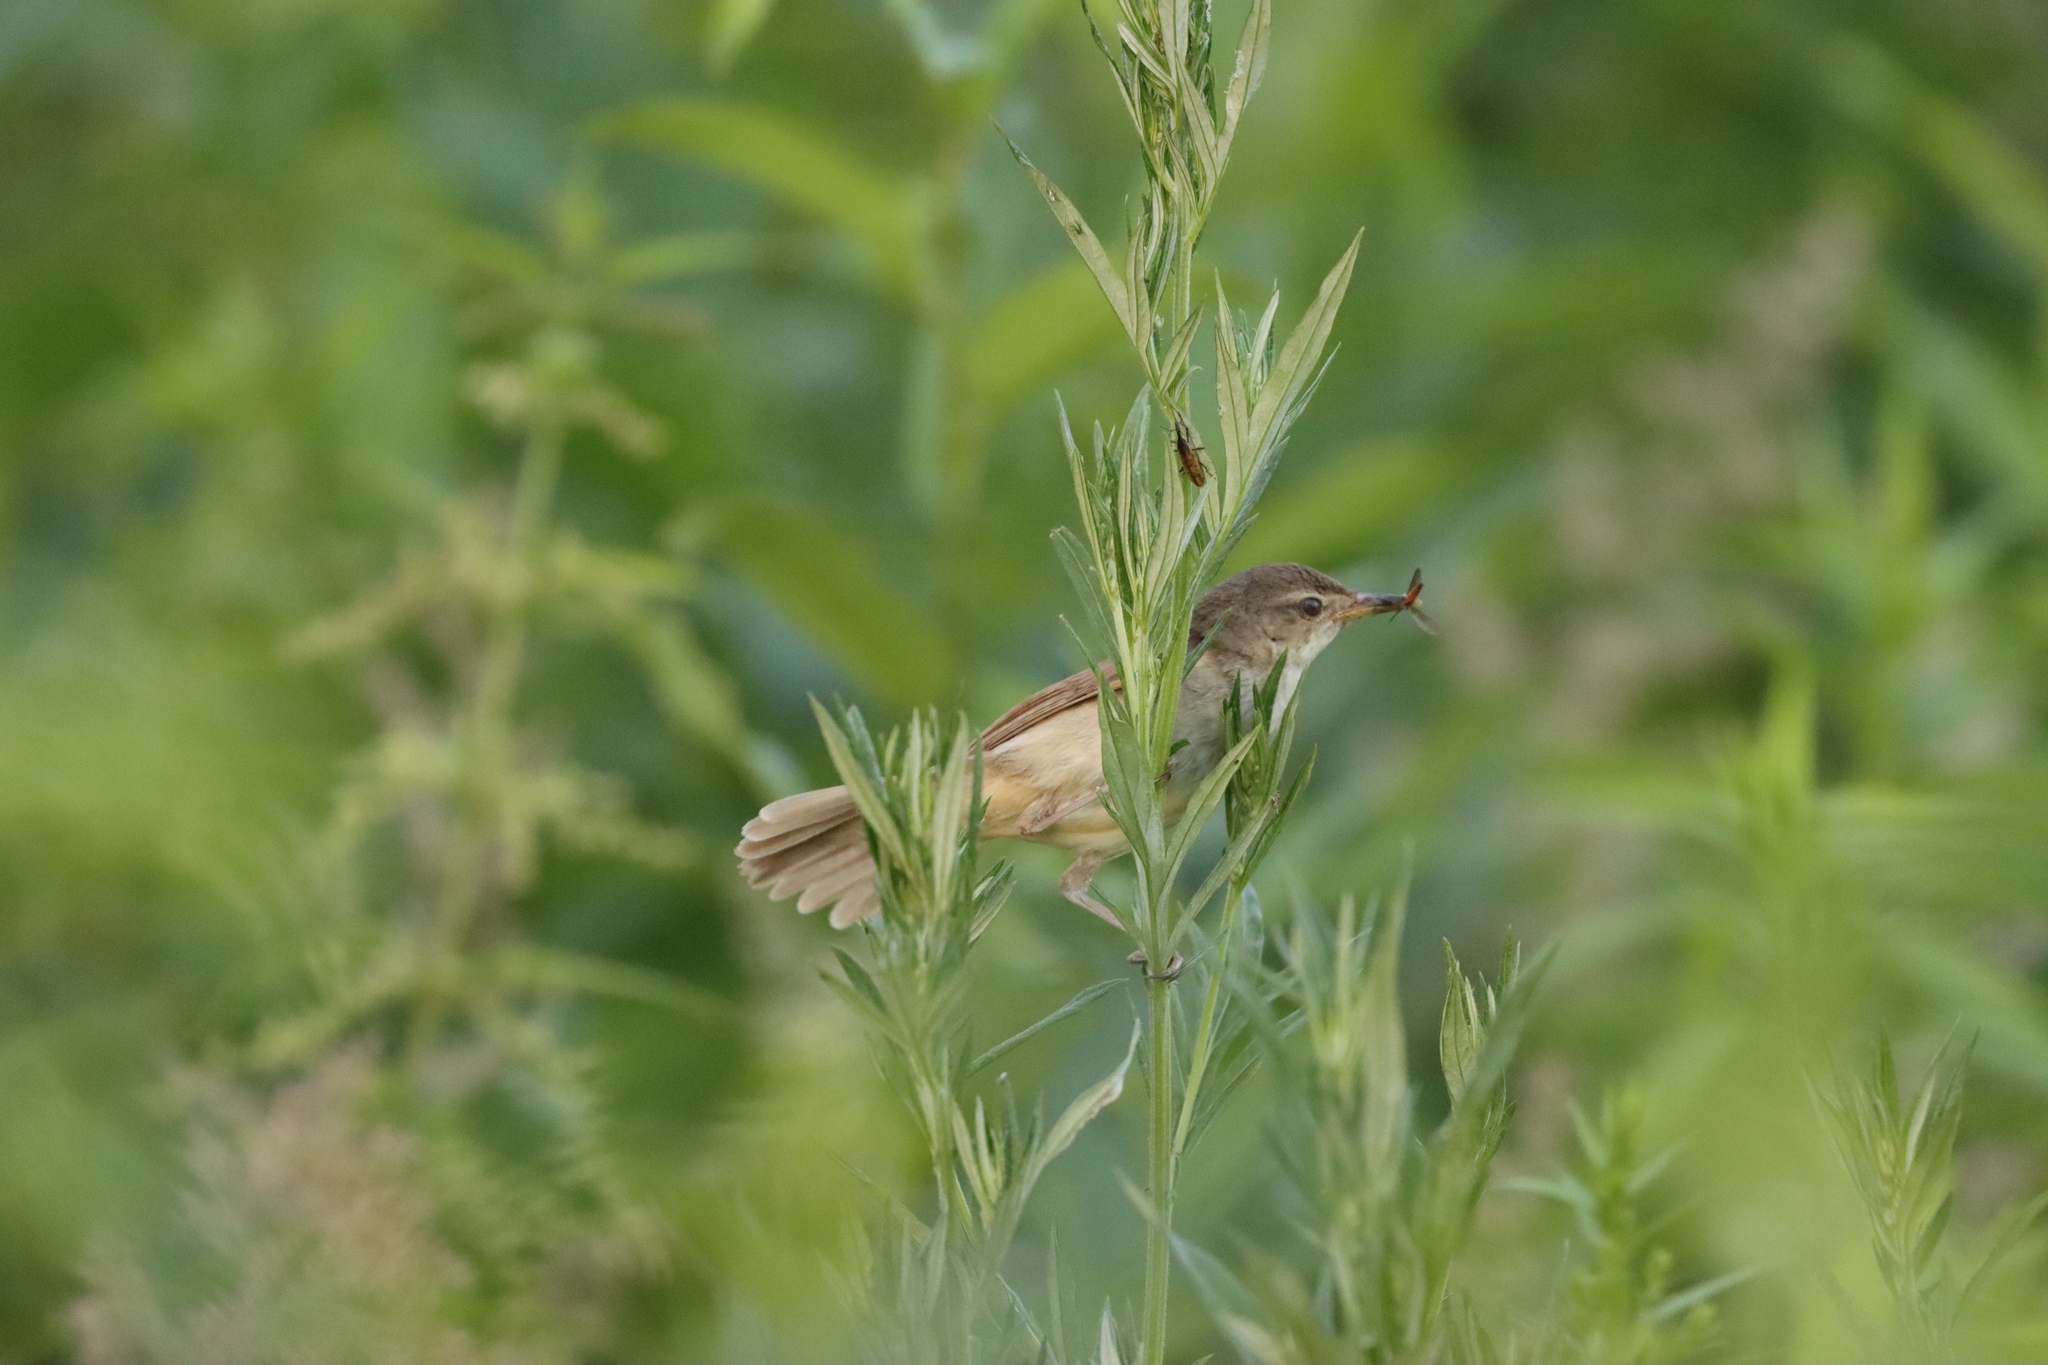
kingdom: Animalia
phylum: Chordata
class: Aves
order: Passeriformes
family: Acrocephalidae
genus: Acrocephalus
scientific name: Acrocephalus dumetorum
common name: Blyth's reed warbler
